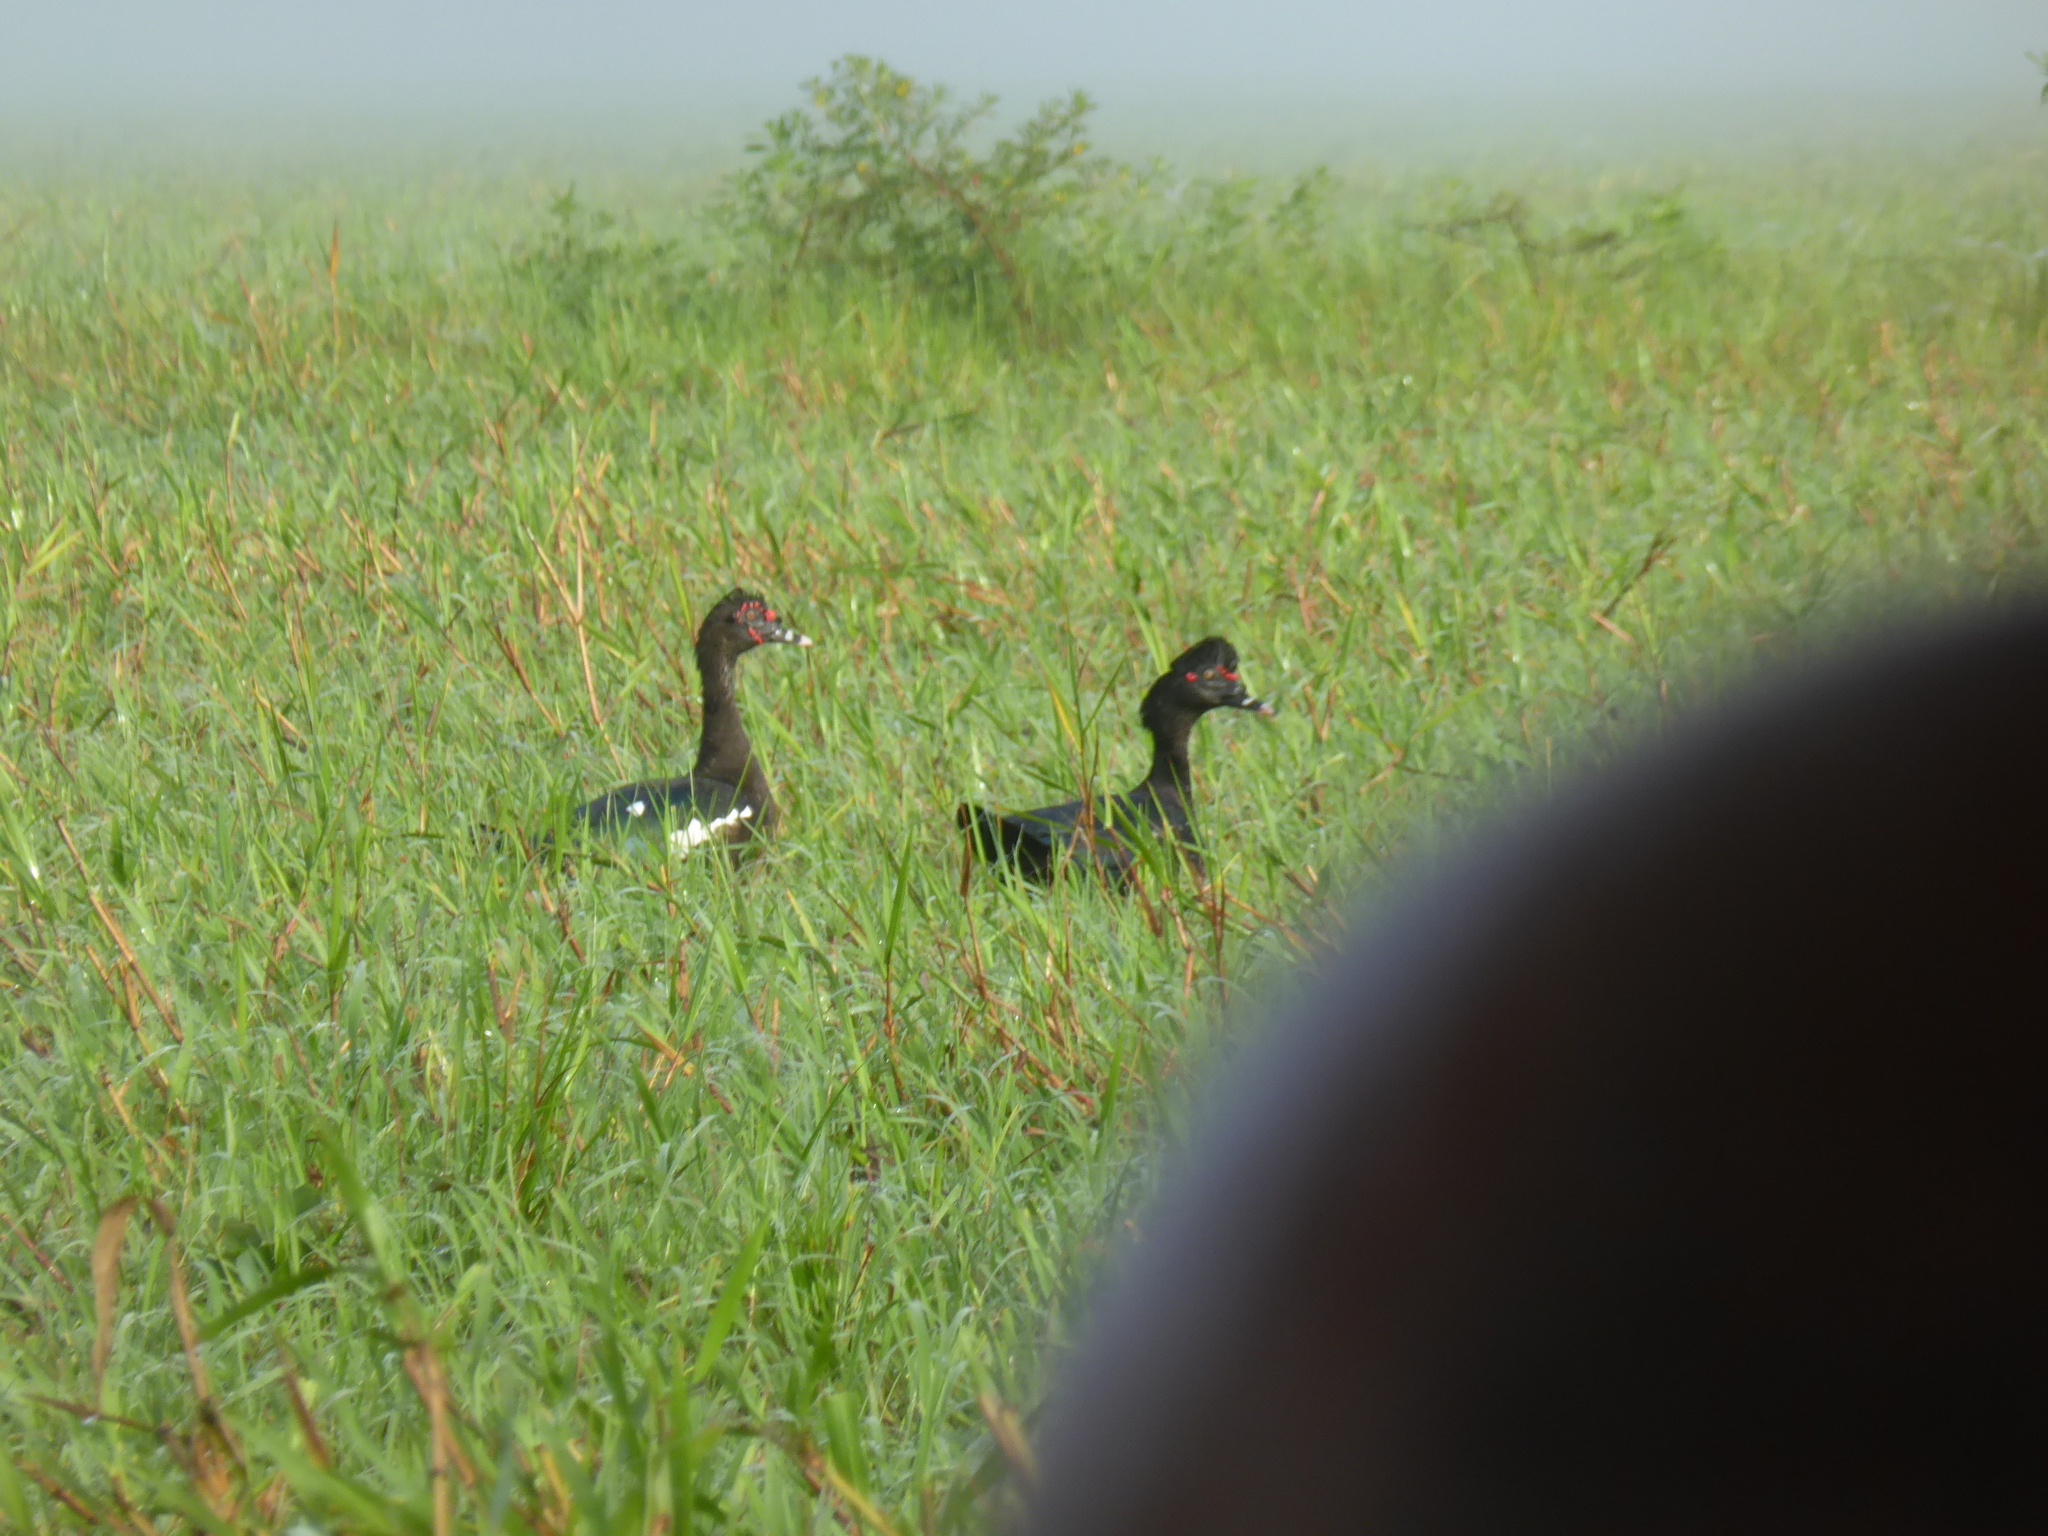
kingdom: Animalia
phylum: Chordata
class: Aves
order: Anseriformes
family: Anatidae
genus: Cairina
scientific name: Cairina moschata
